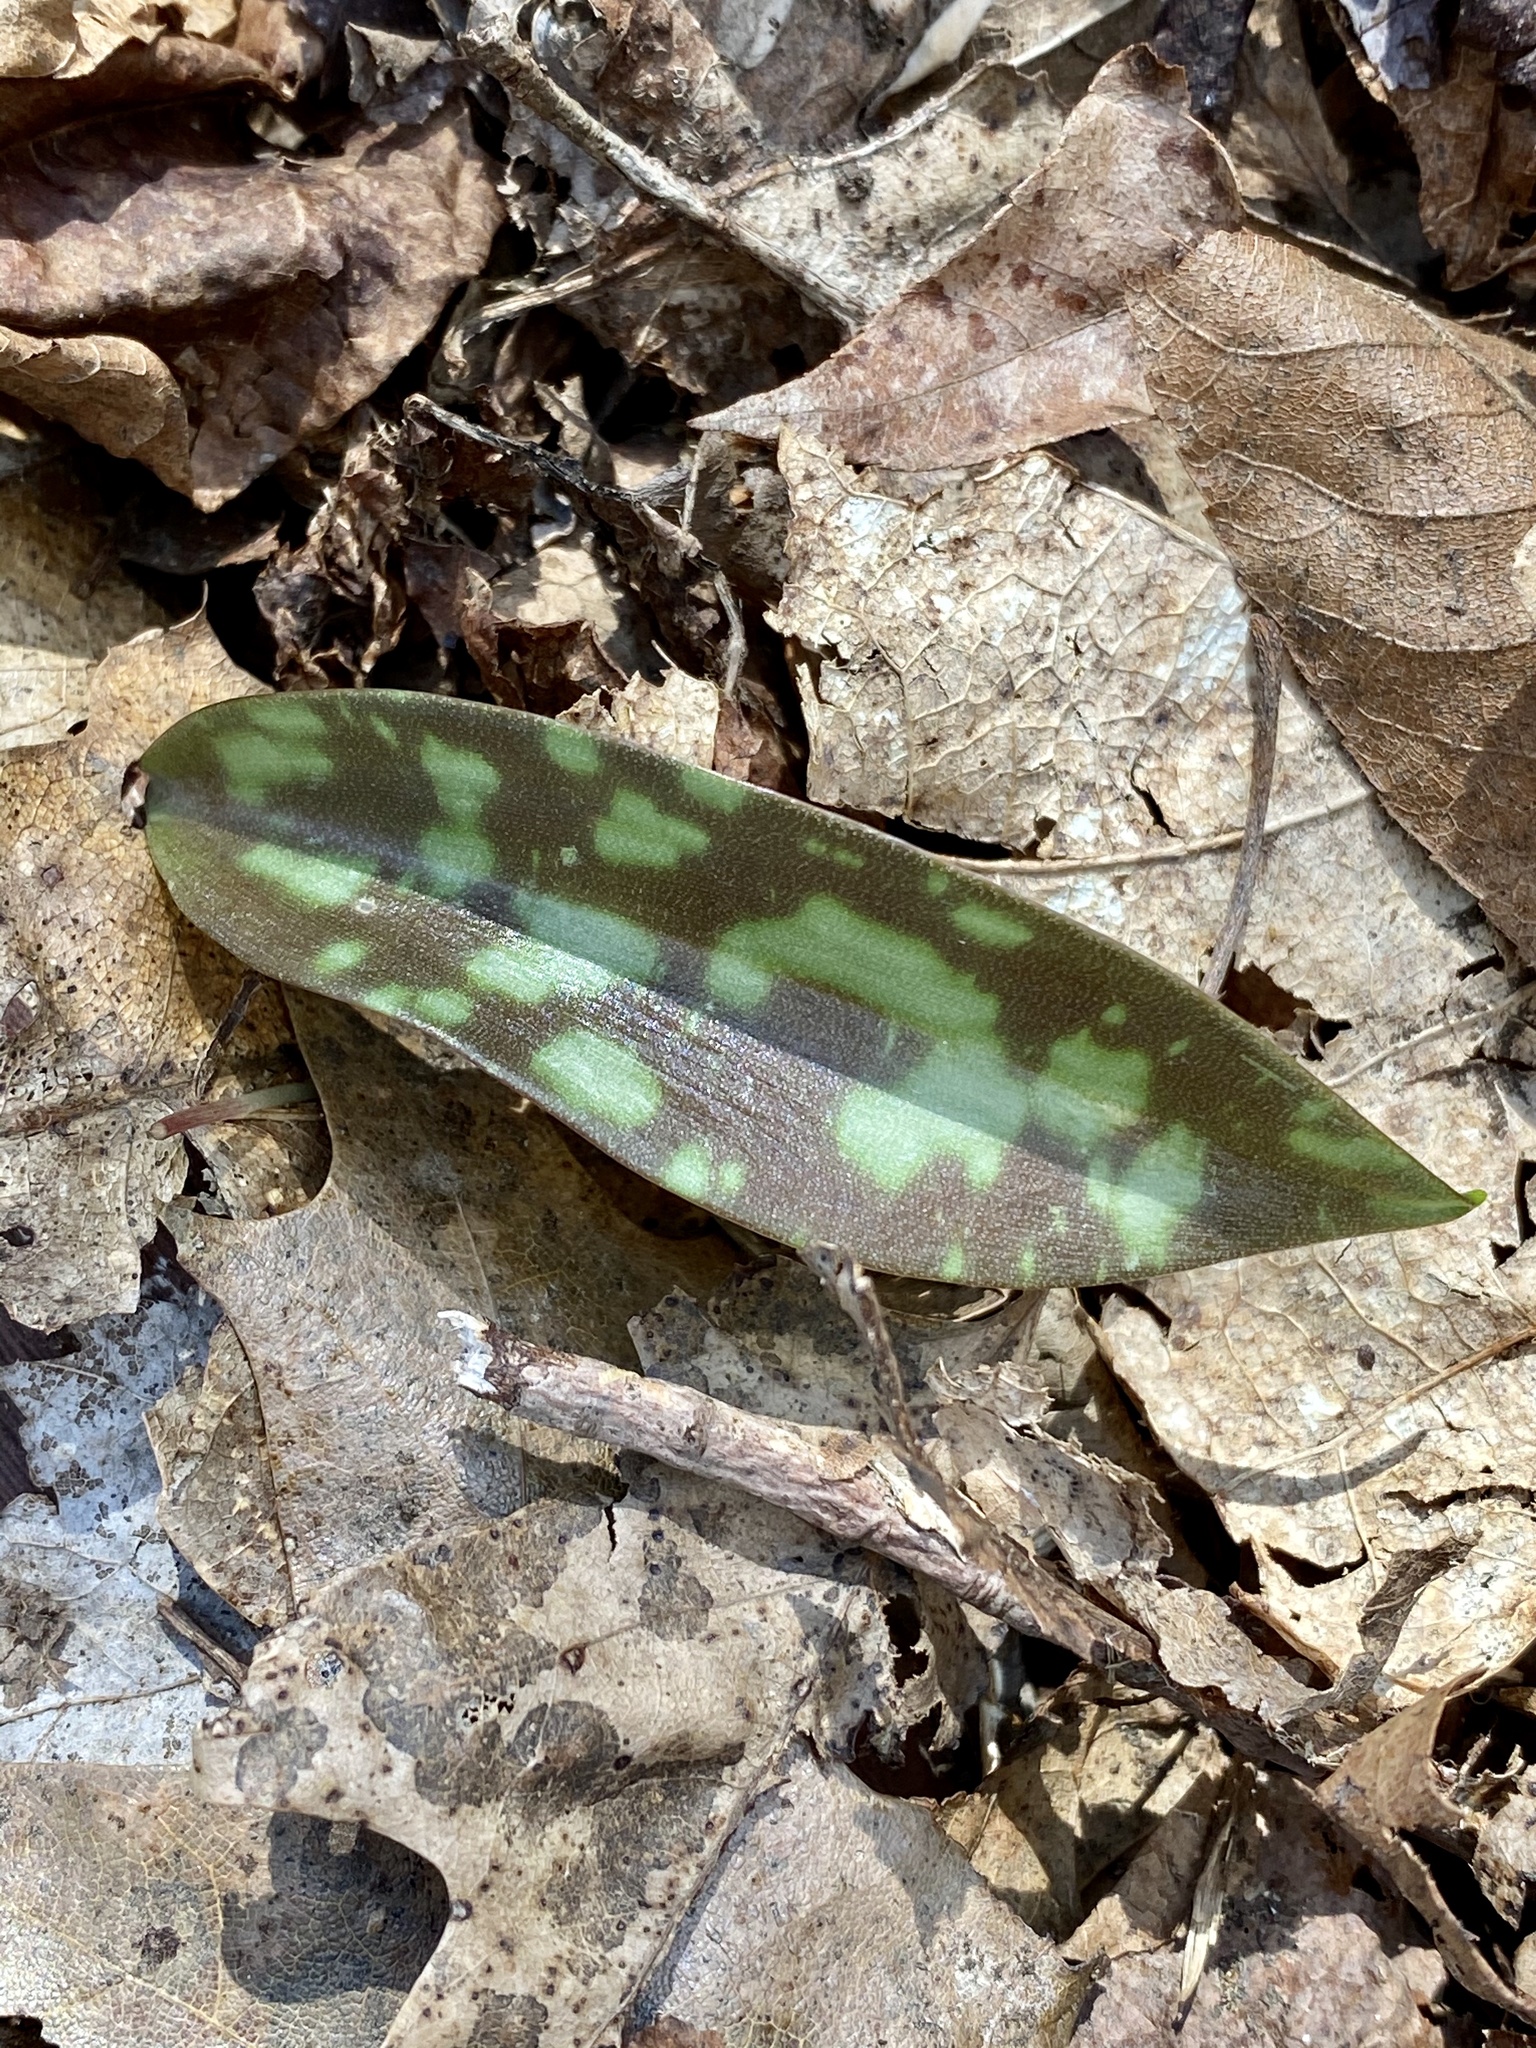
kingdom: Plantae
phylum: Tracheophyta
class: Liliopsida
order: Liliales
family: Liliaceae
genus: Erythronium
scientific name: Erythronium americanum
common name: Yellow adder's-tongue
